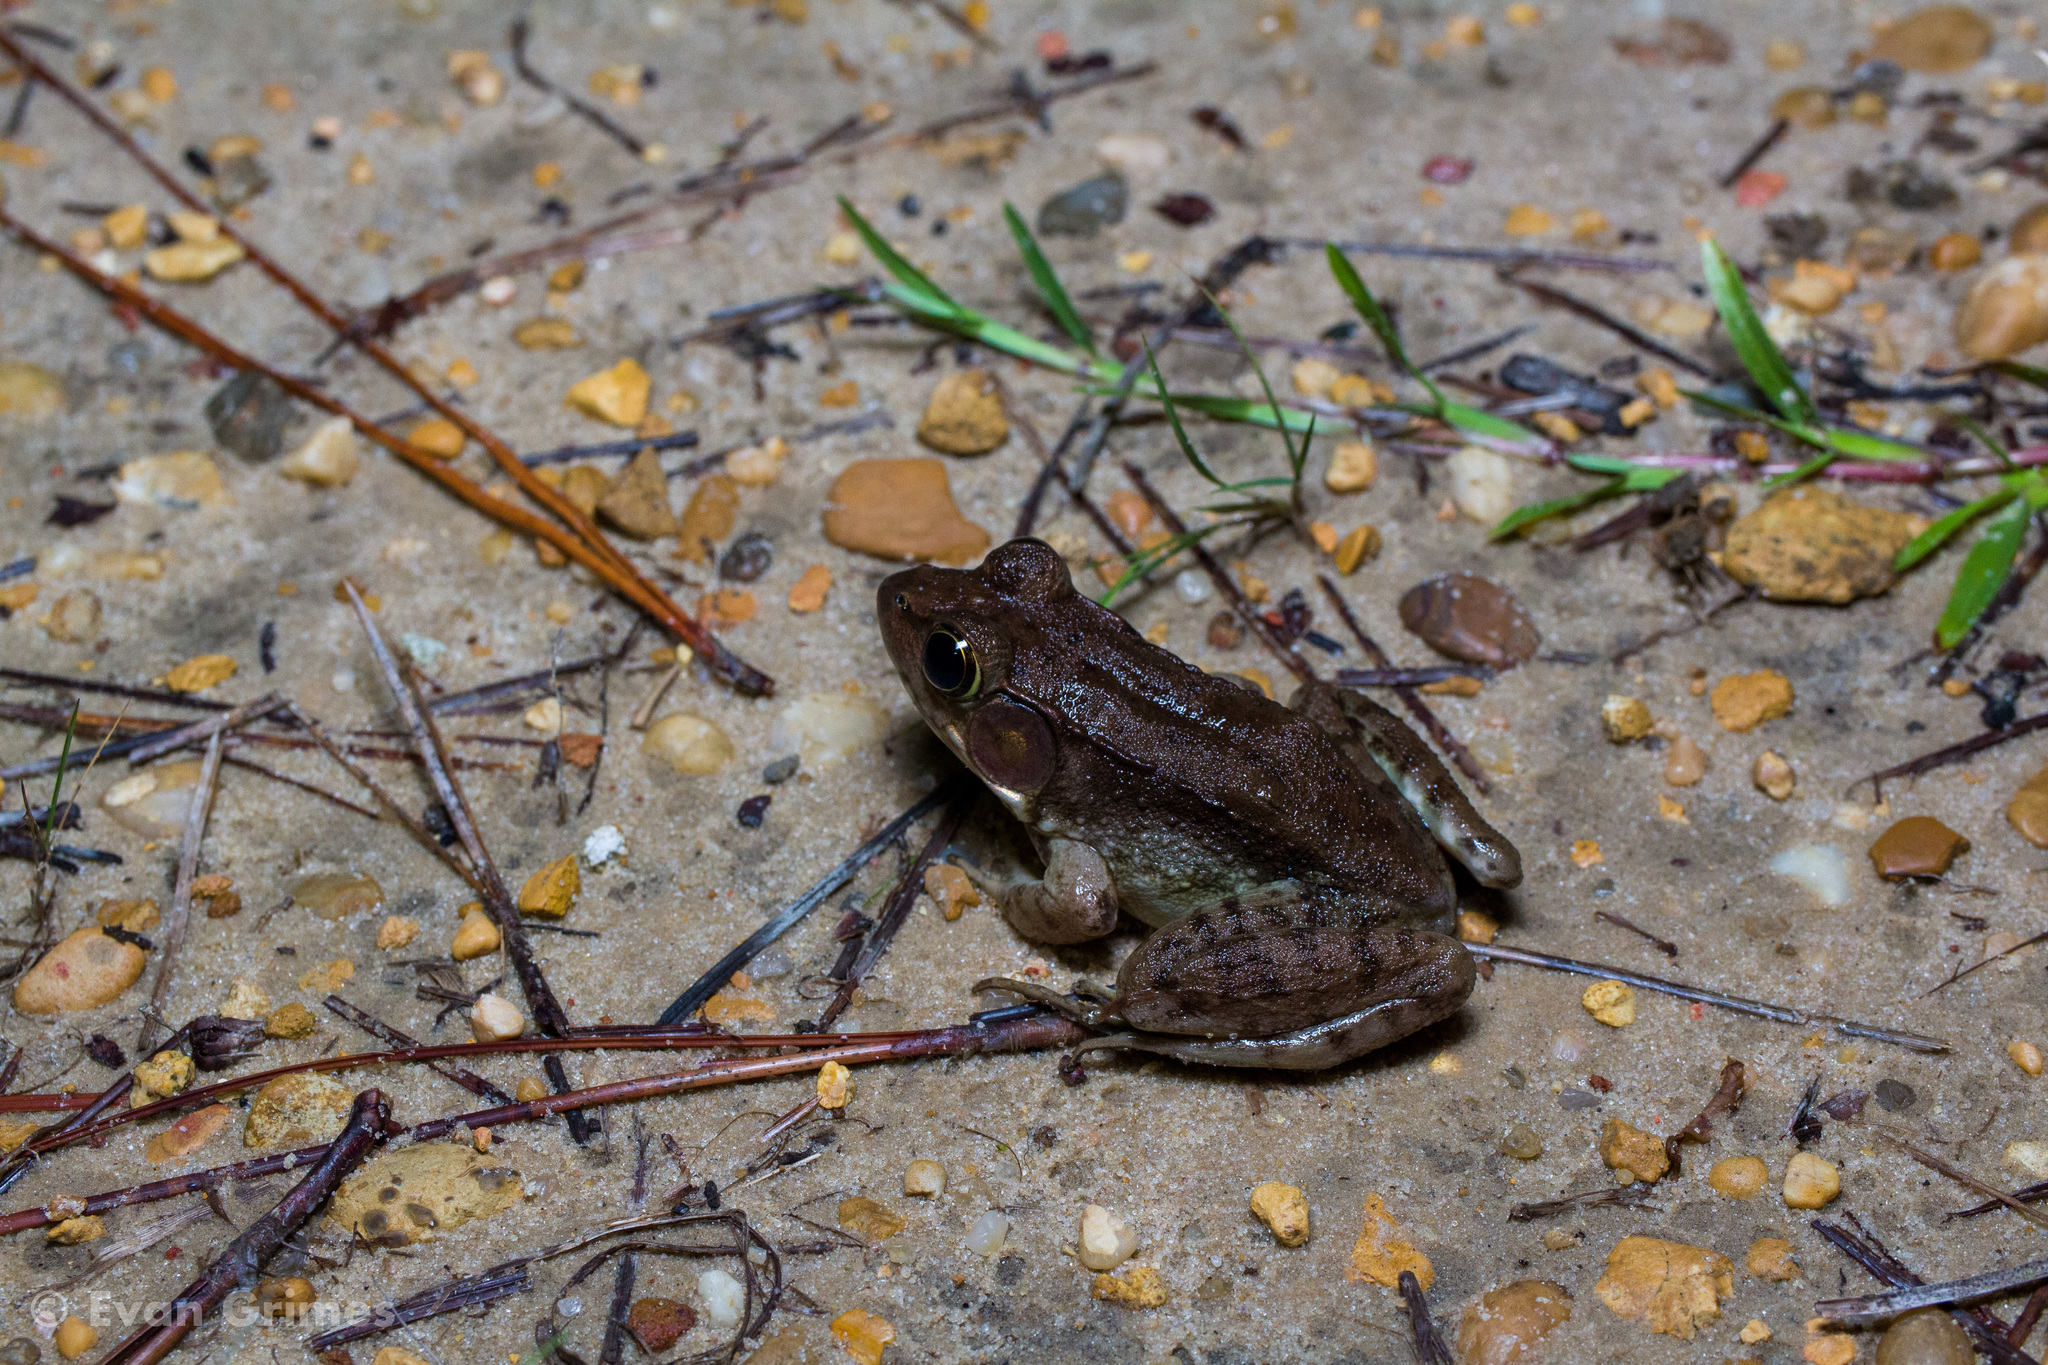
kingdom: Animalia
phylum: Chordata
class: Amphibia
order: Anura
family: Ranidae
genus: Lithobates
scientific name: Lithobates clamitans
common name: Green frog
